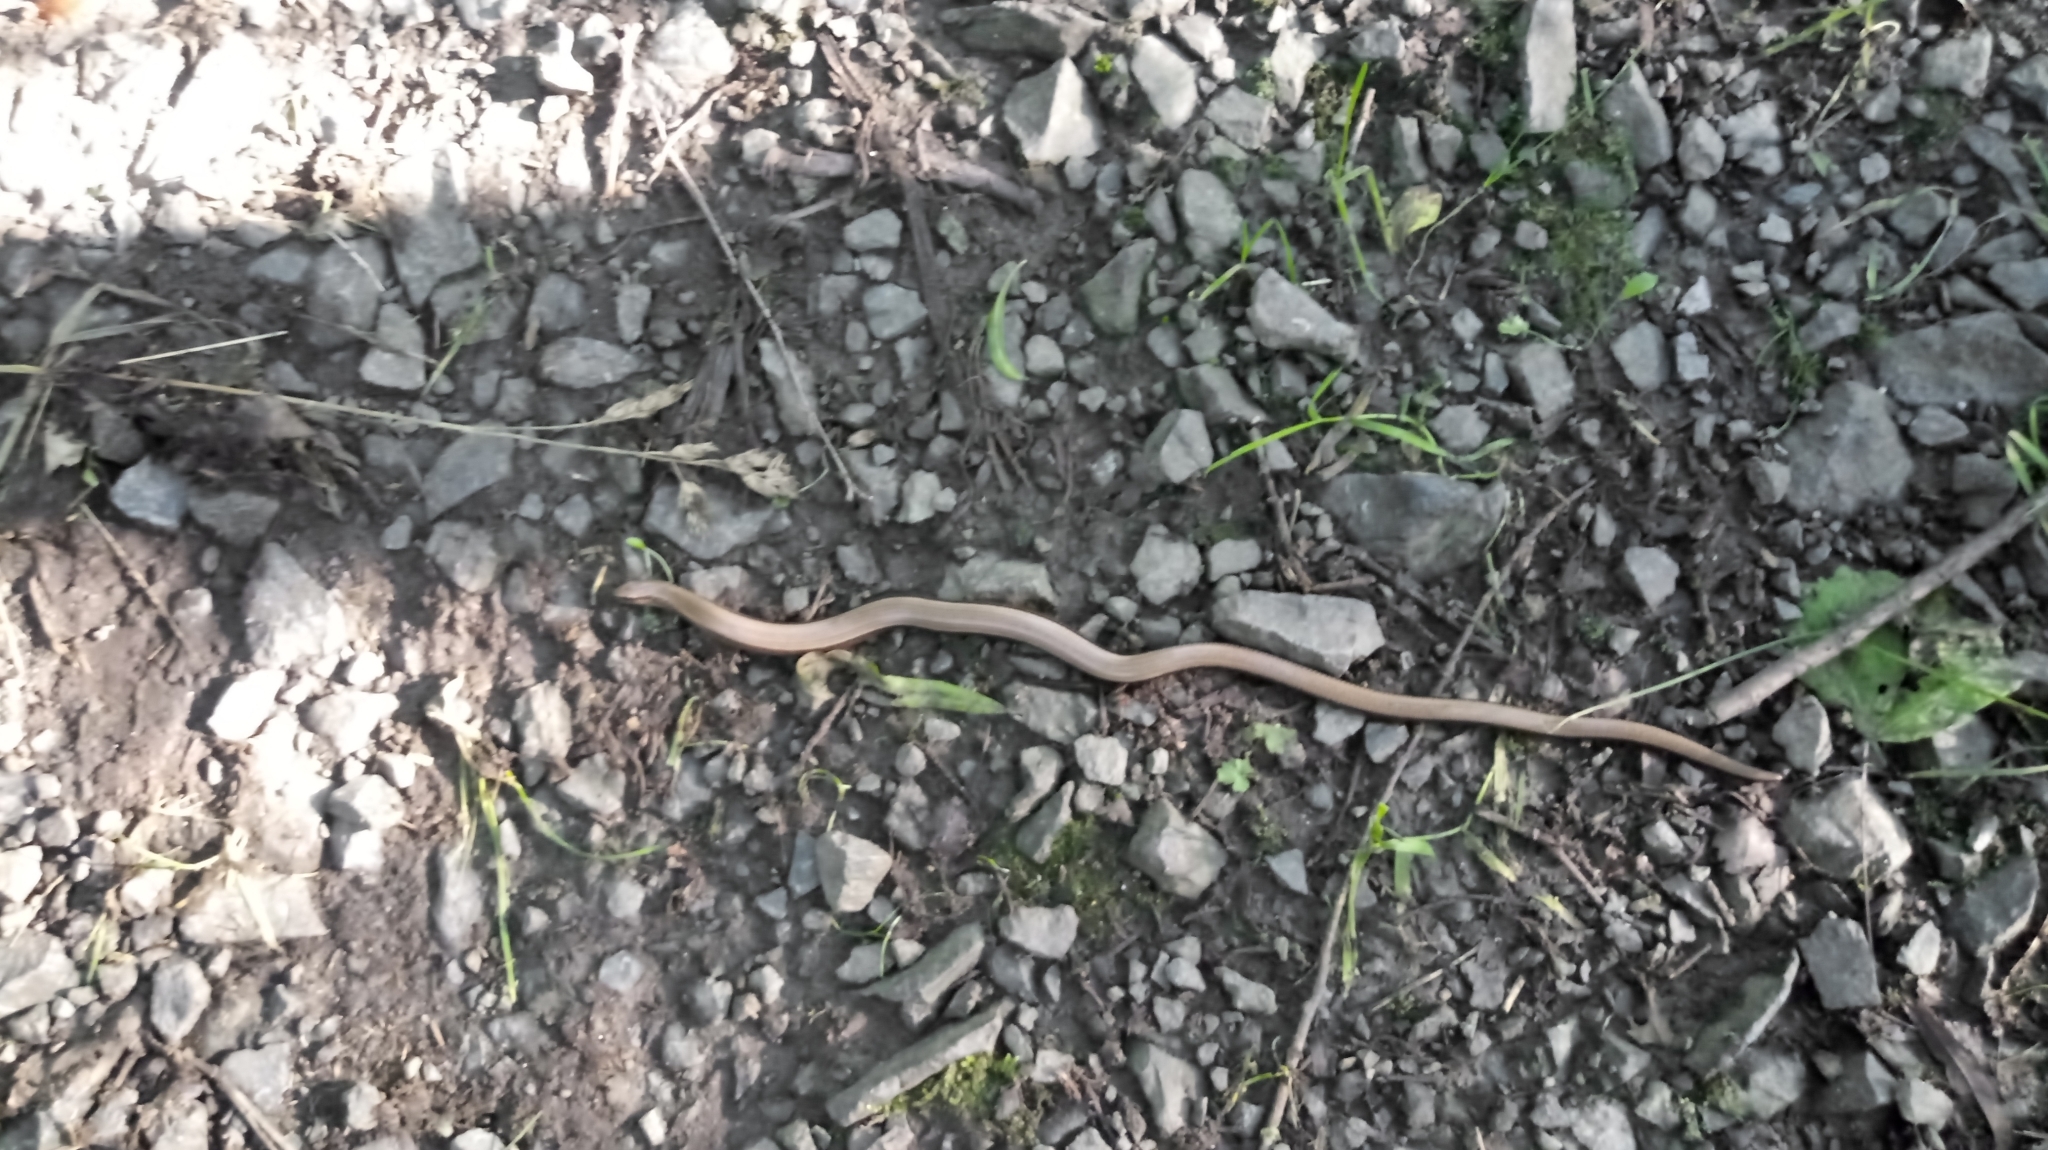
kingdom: Animalia
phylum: Chordata
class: Squamata
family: Anguidae
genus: Anguis
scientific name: Anguis fragilis
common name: Slow worm
